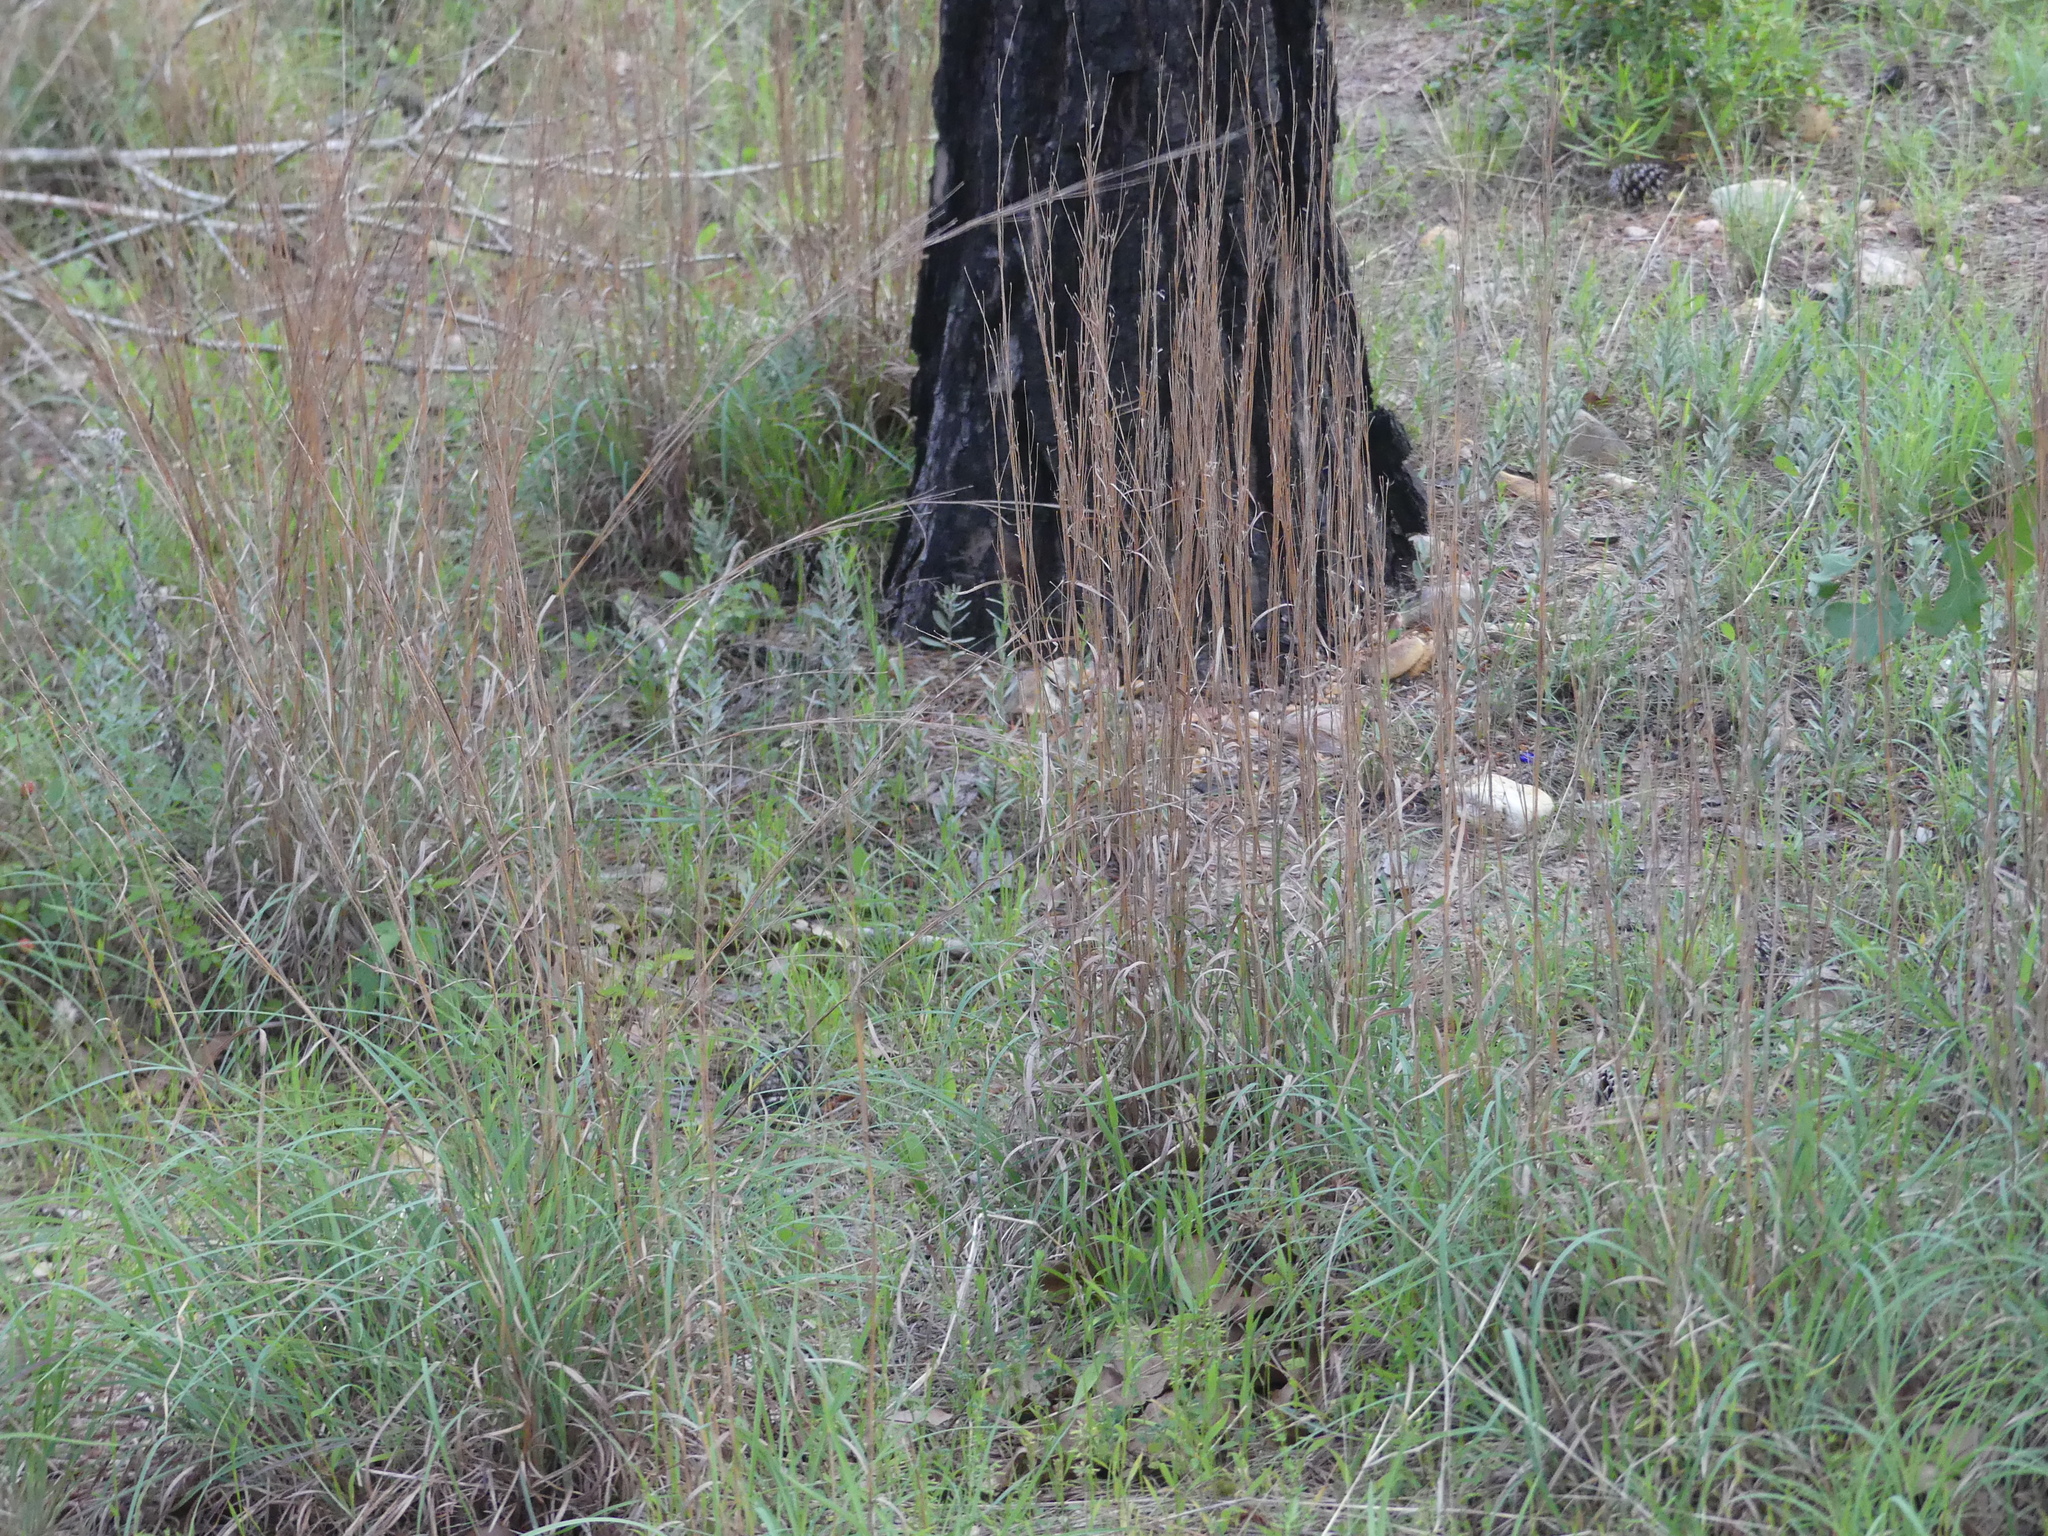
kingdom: Plantae
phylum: Tracheophyta
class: Liliopsida
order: Poales
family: Poaceae
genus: Schizachyrium
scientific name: Schizachyrium scoparium
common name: Little bluestem
